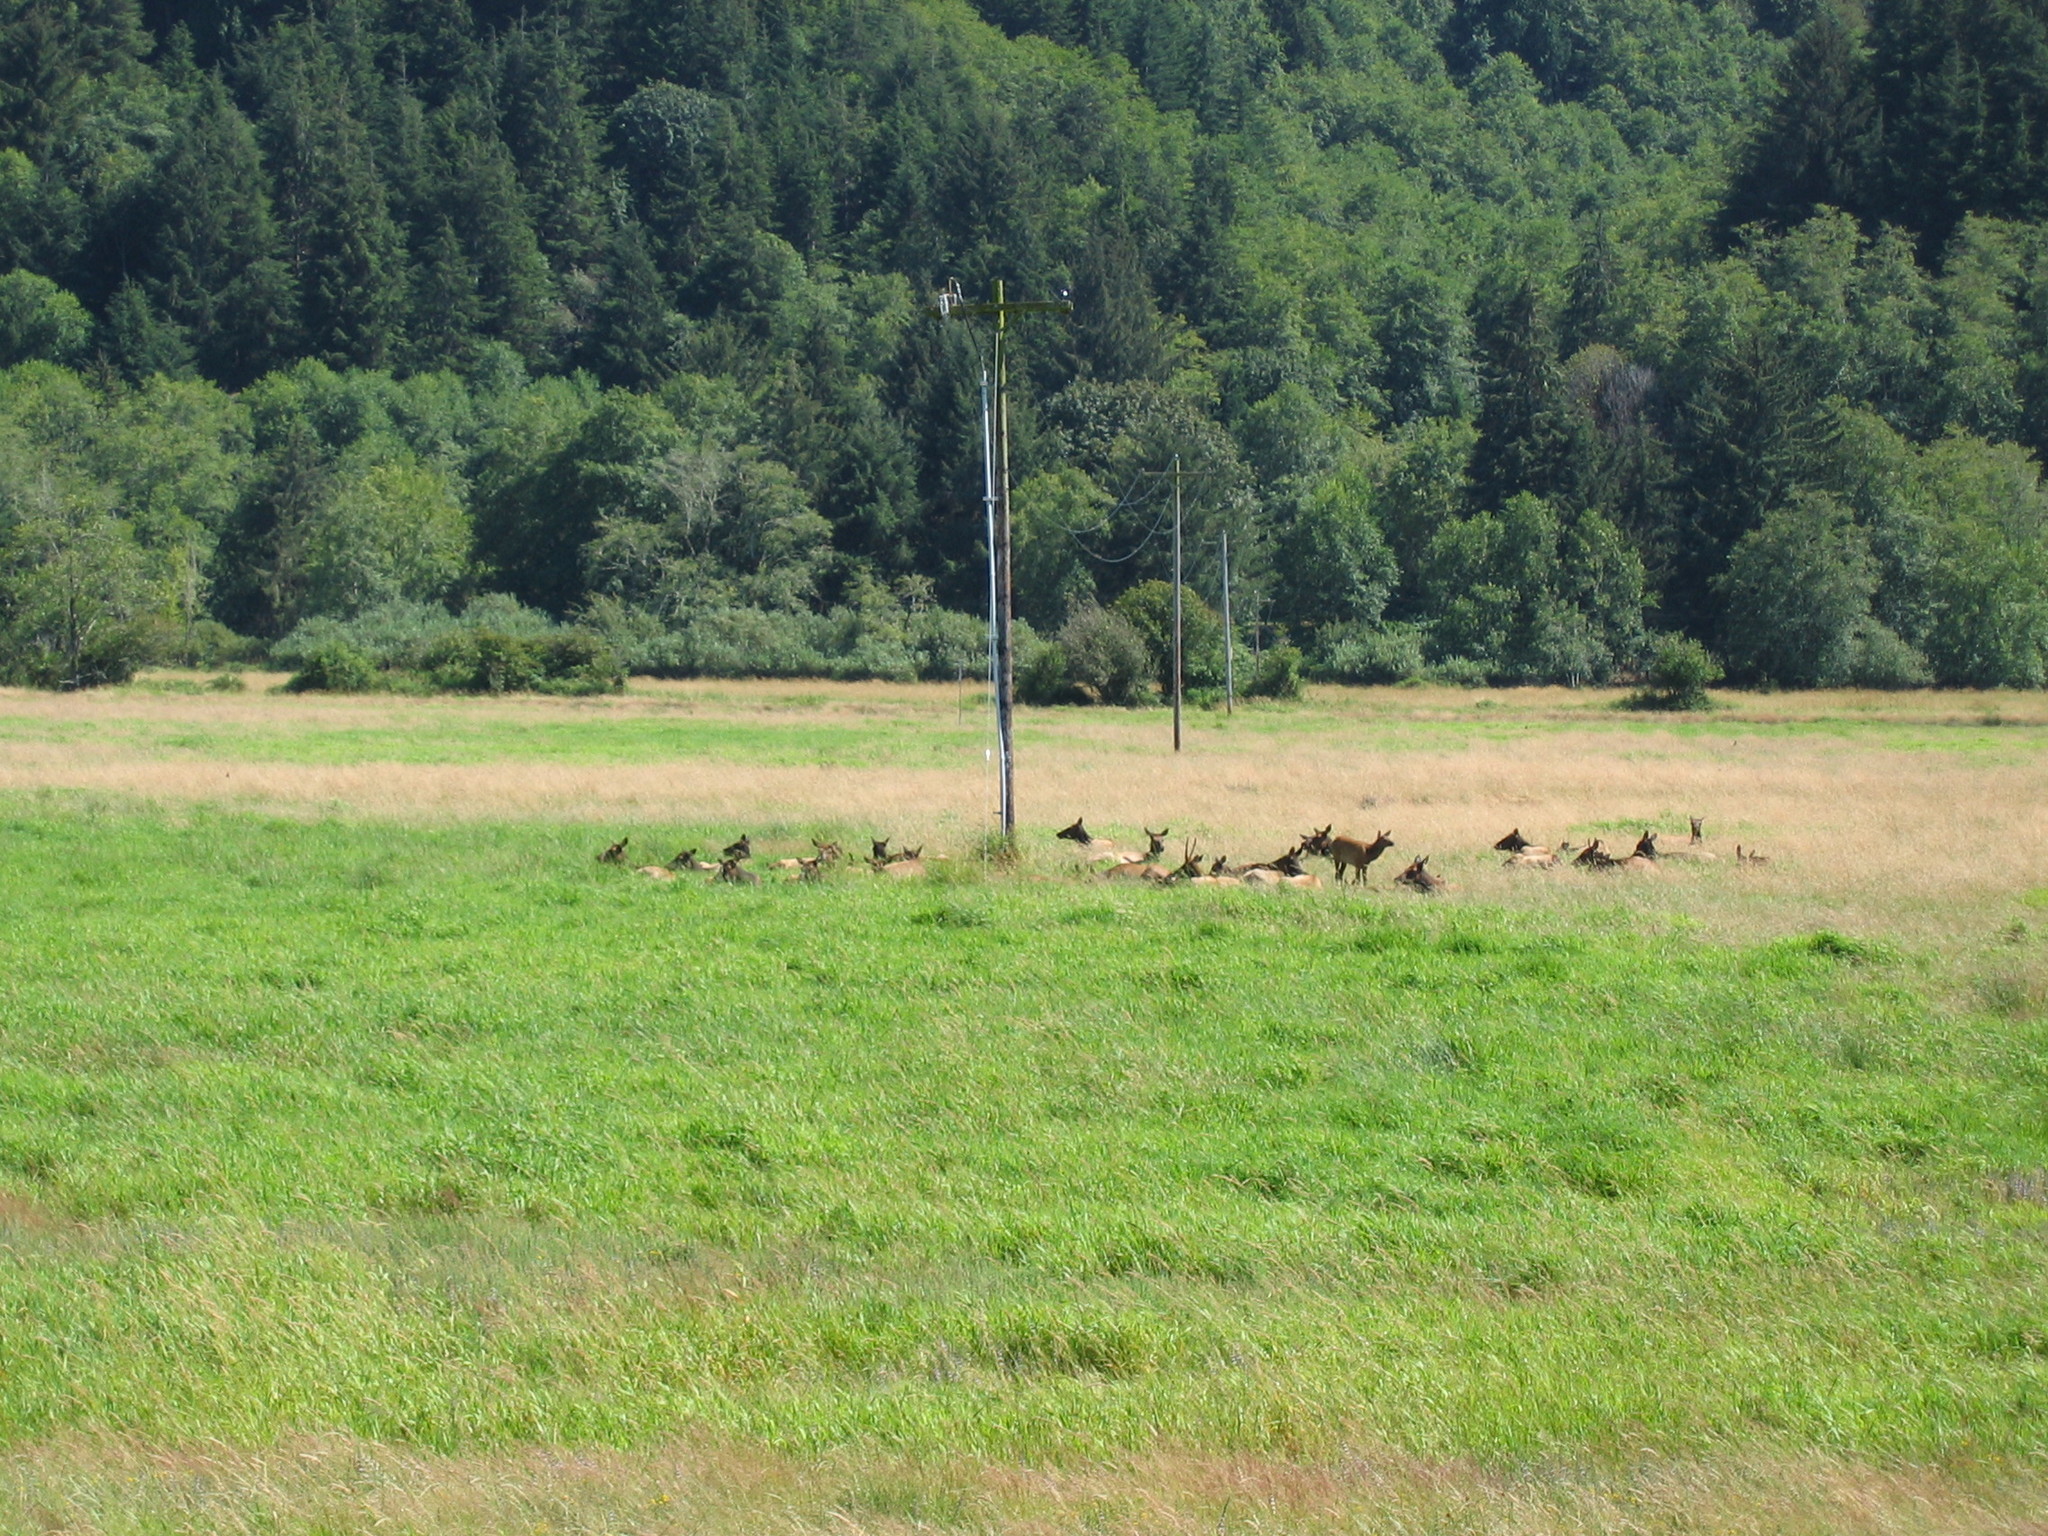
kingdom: Animalia
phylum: Chordata
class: Mammalia
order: Artiodactyla
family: Cervidae
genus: Cervus
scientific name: Cervus elaphus
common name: Red deer
